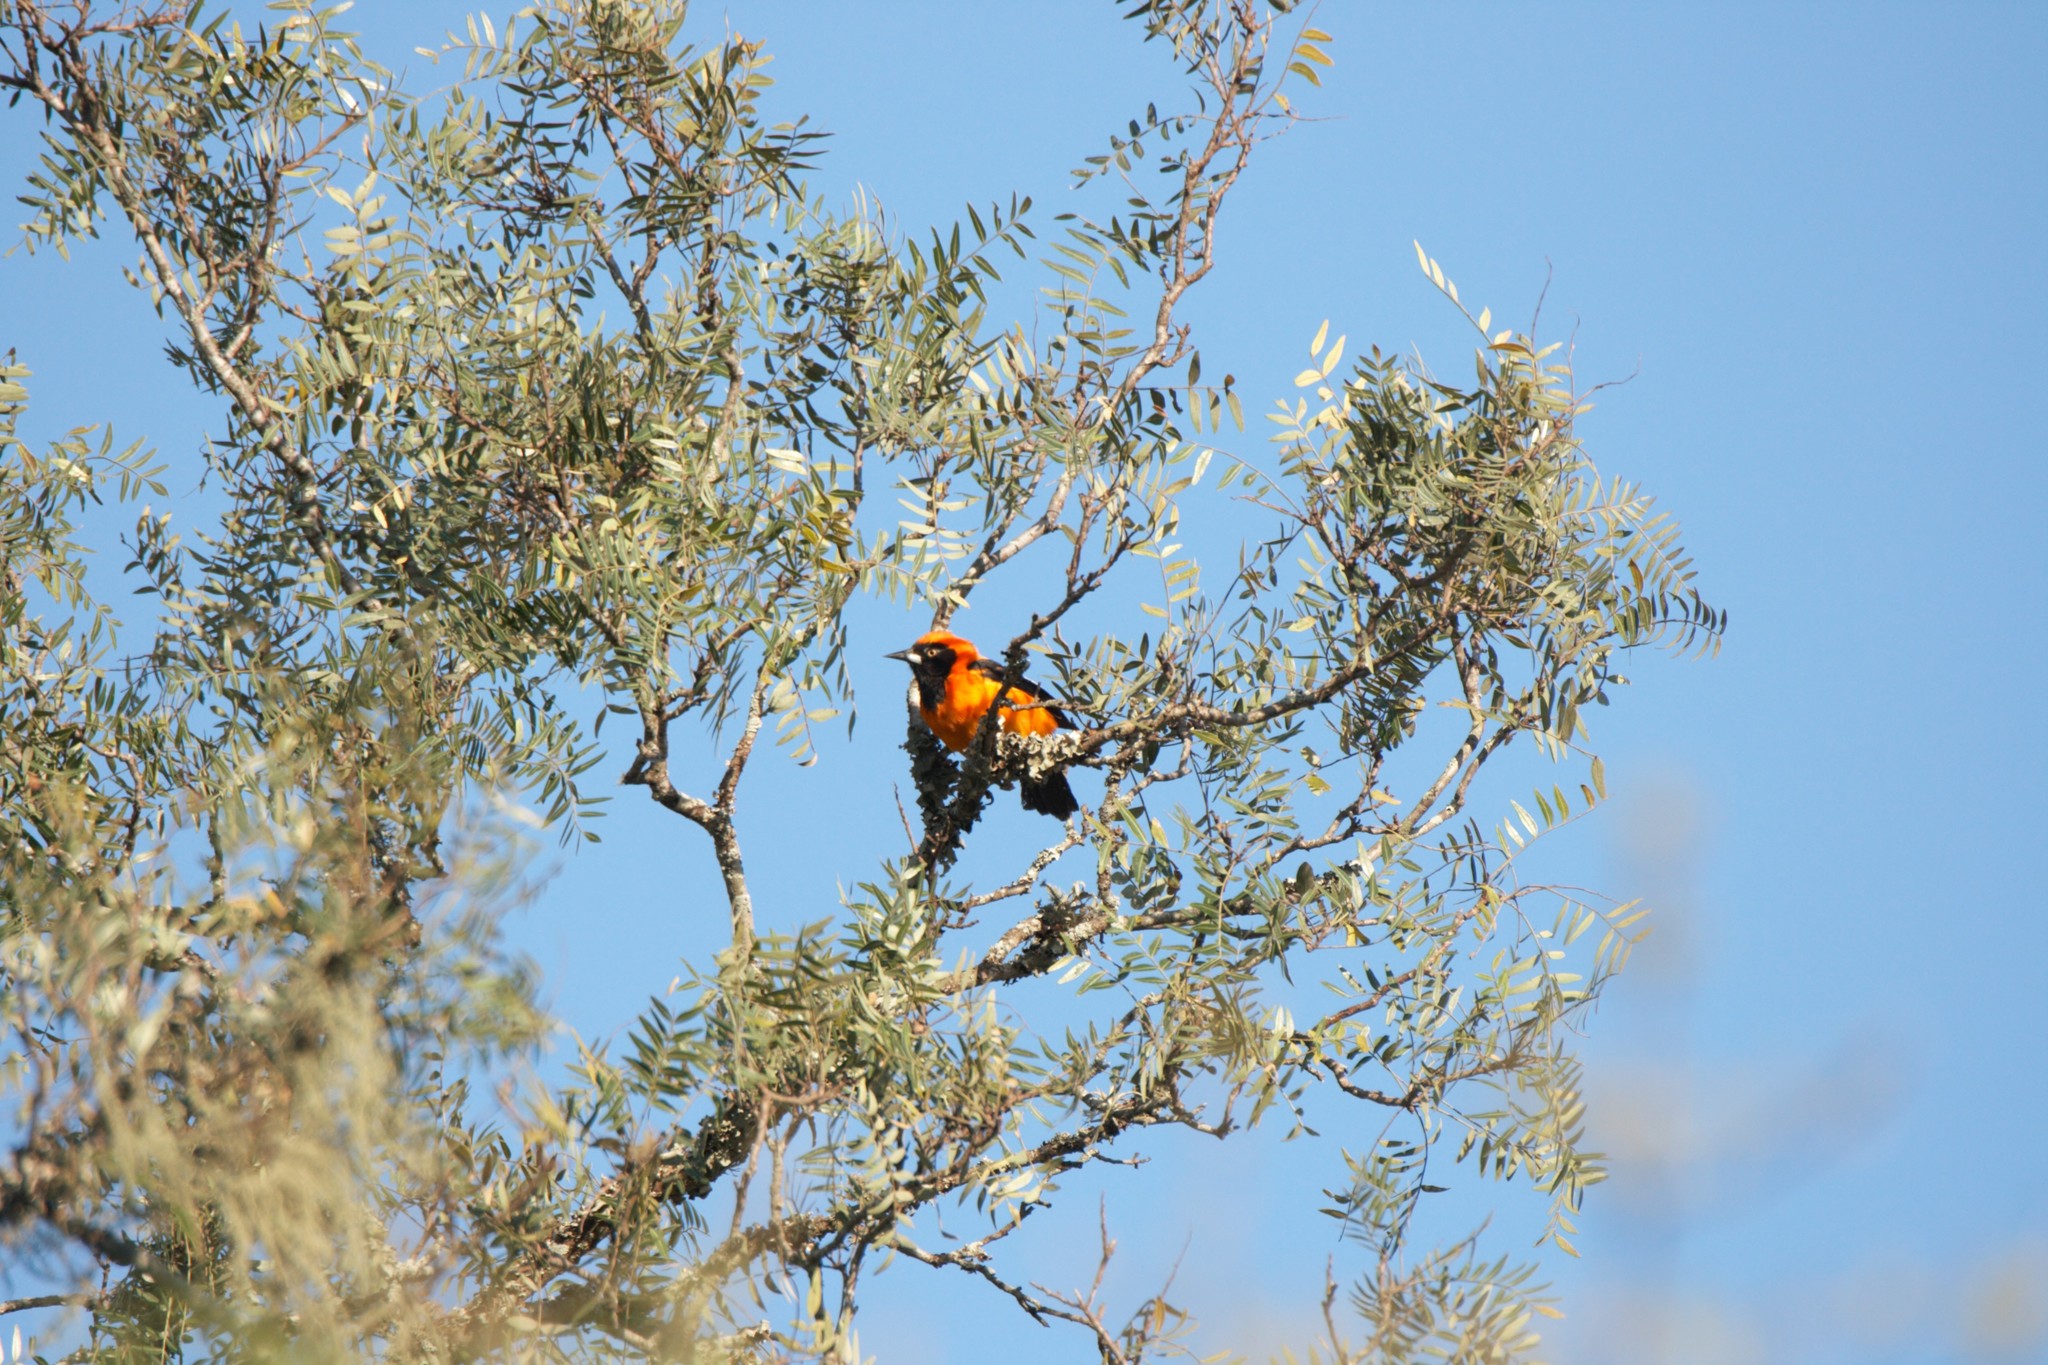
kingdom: Animalia
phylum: Chordata
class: Aves
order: Passeriformes
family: Icteridae
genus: Icterus
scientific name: Icterus icterus
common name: Venezuelan troupial
